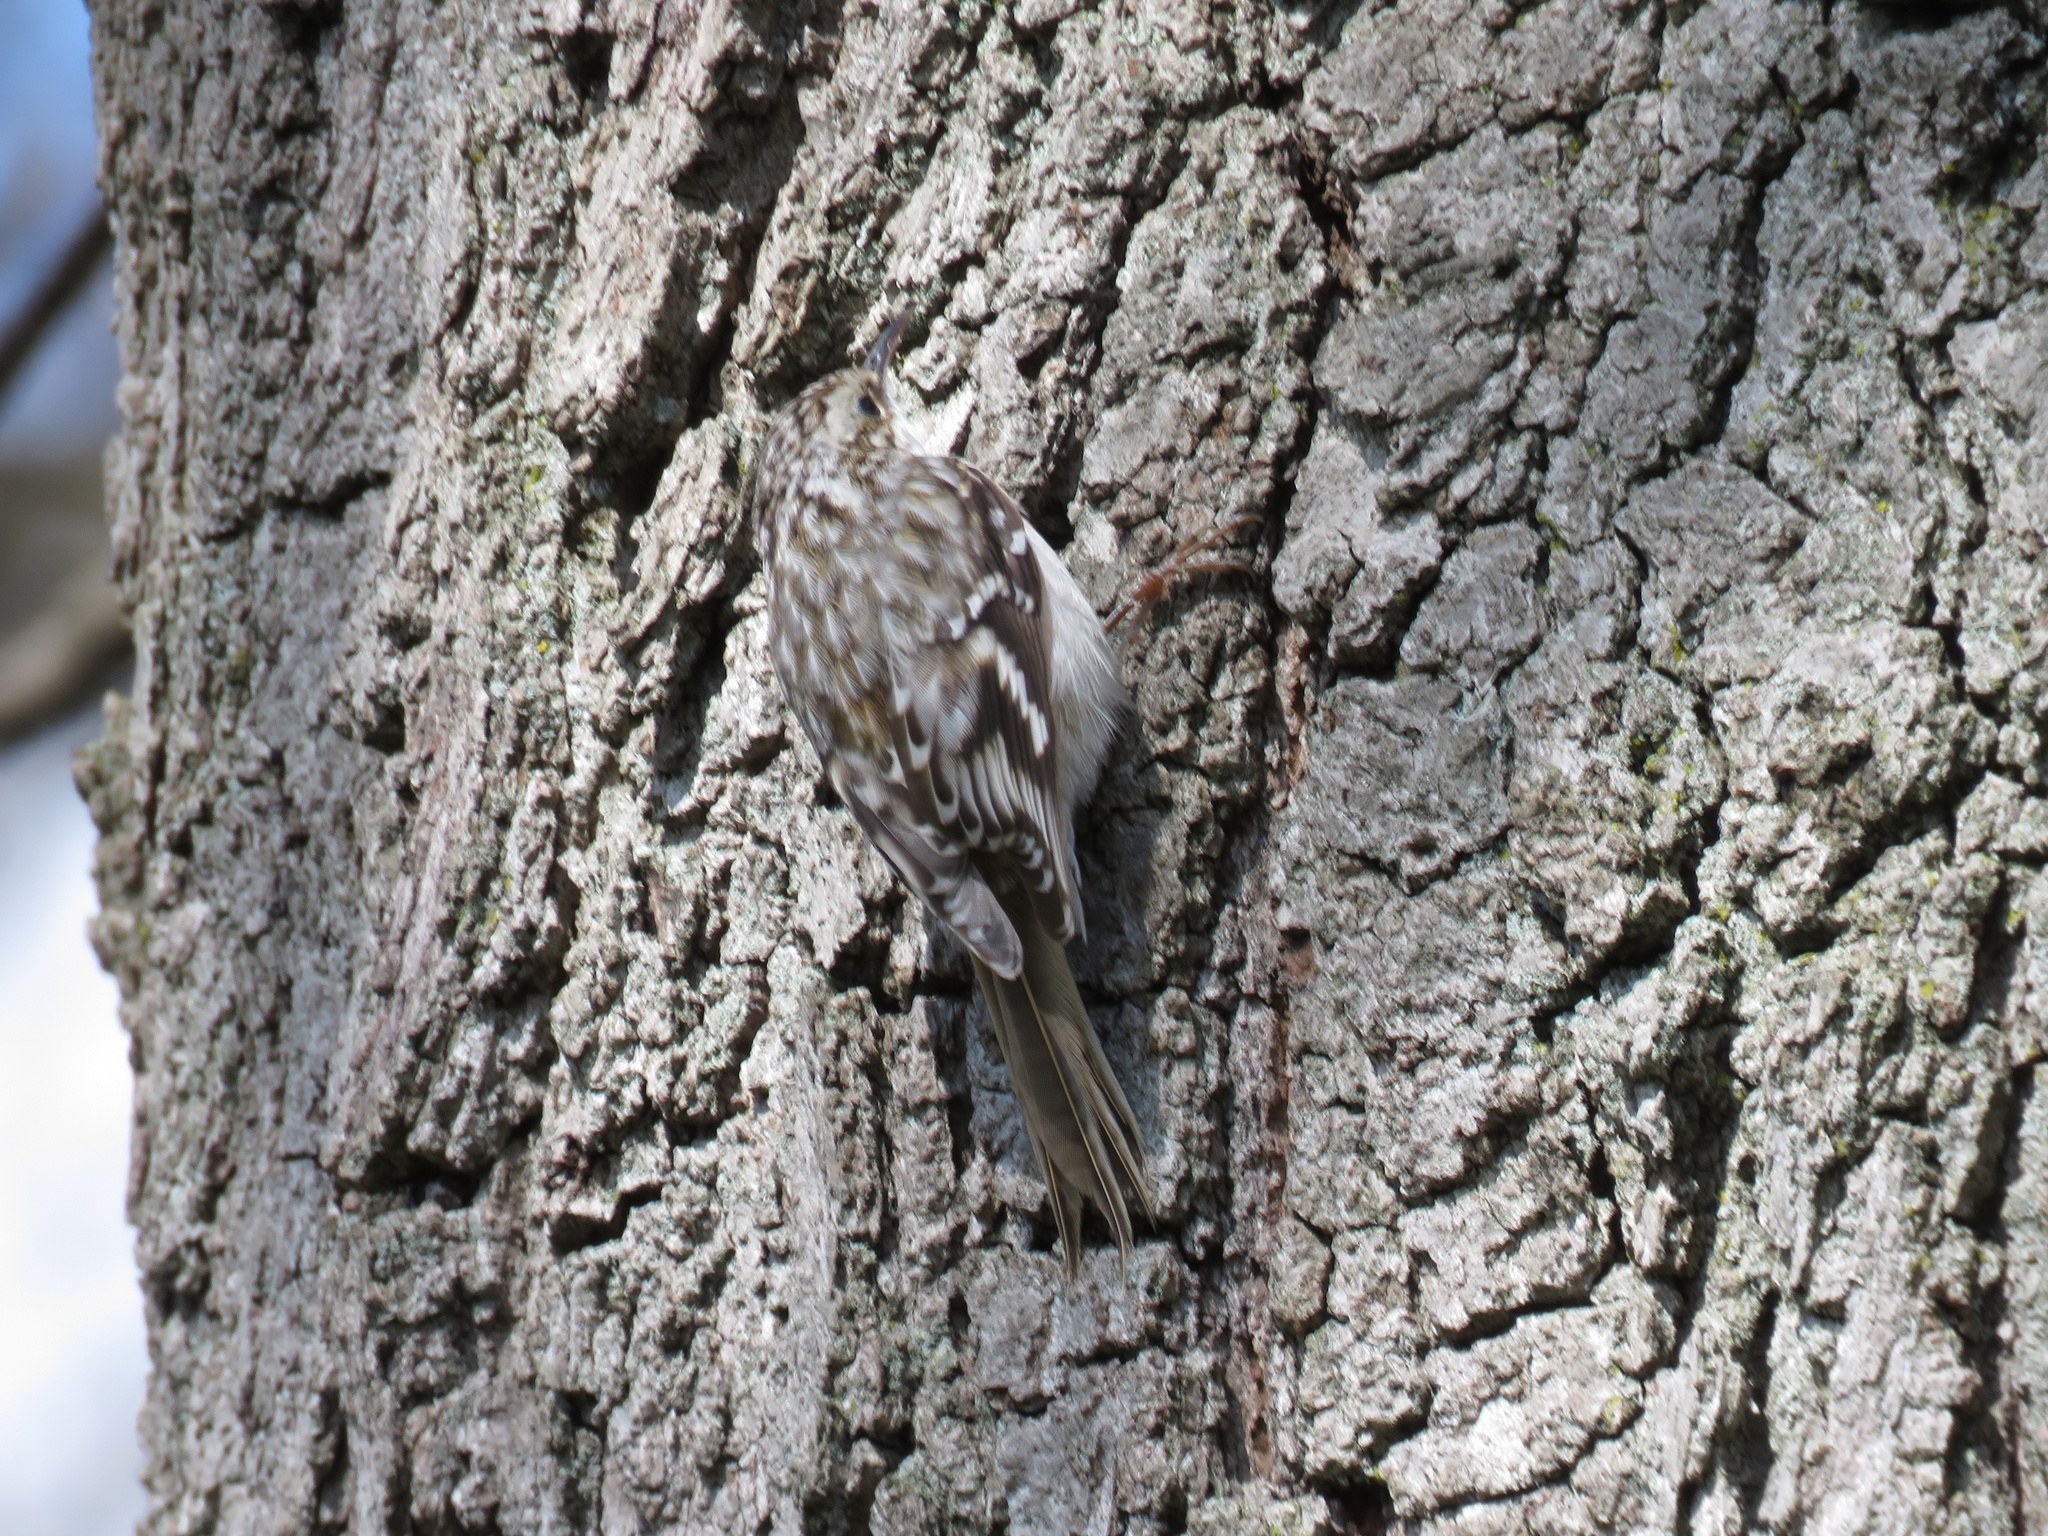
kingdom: Animalia
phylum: Chordata
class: Aves
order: Passeriformes
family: Certhiidae
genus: Certhia
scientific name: Certhia americana
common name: Brown creeper
